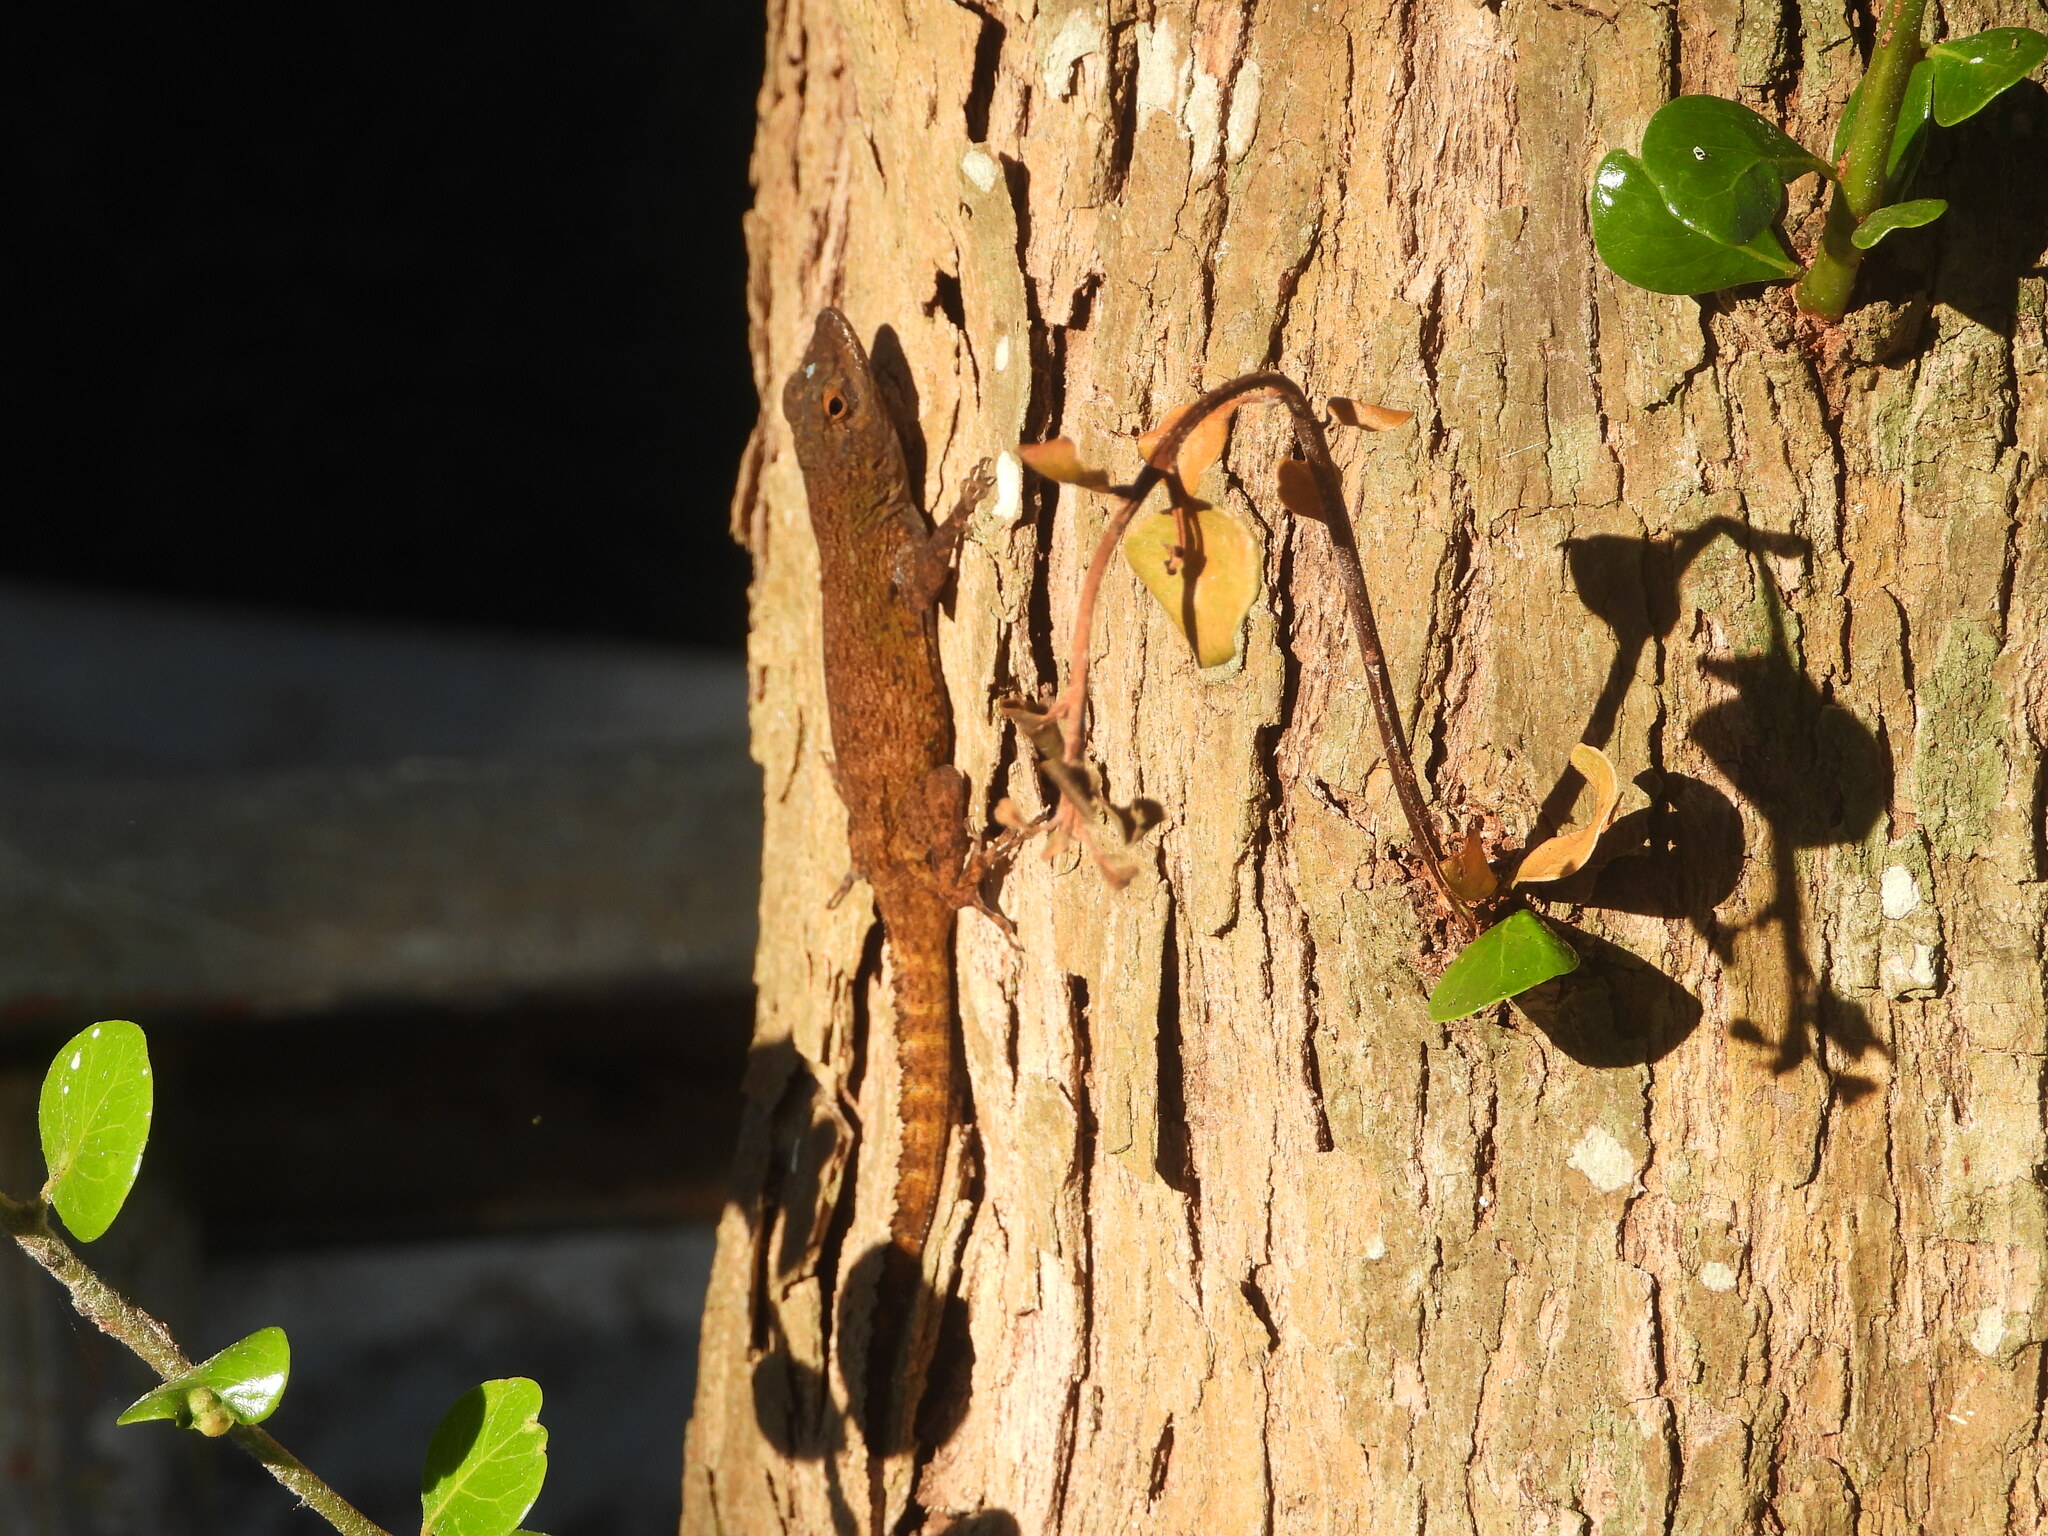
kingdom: Animalia
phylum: Chordata
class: Squamata
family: Dactyloidae
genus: Anolis
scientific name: Anolis distichus
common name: Bark anole
